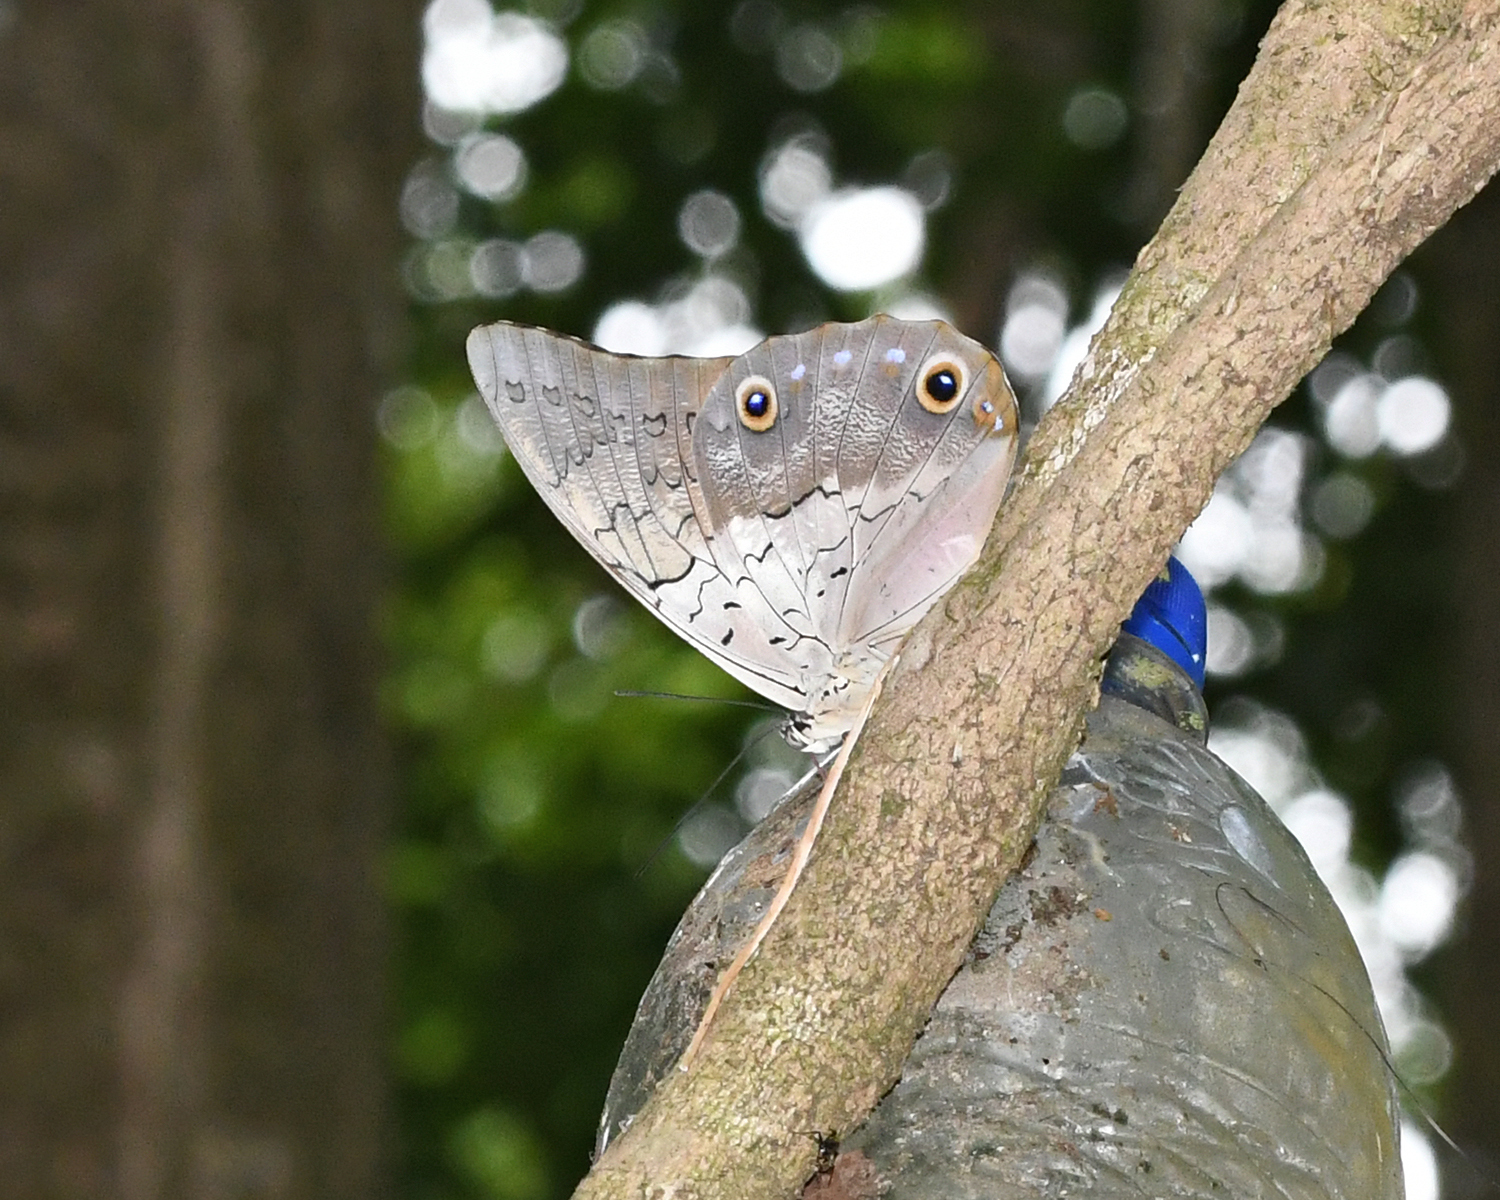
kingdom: Animalia
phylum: Arthropoda
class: Insecta
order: Lepidoptera
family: Nymphalidae
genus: Prepona
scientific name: Prepona laertes
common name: Butterfly
